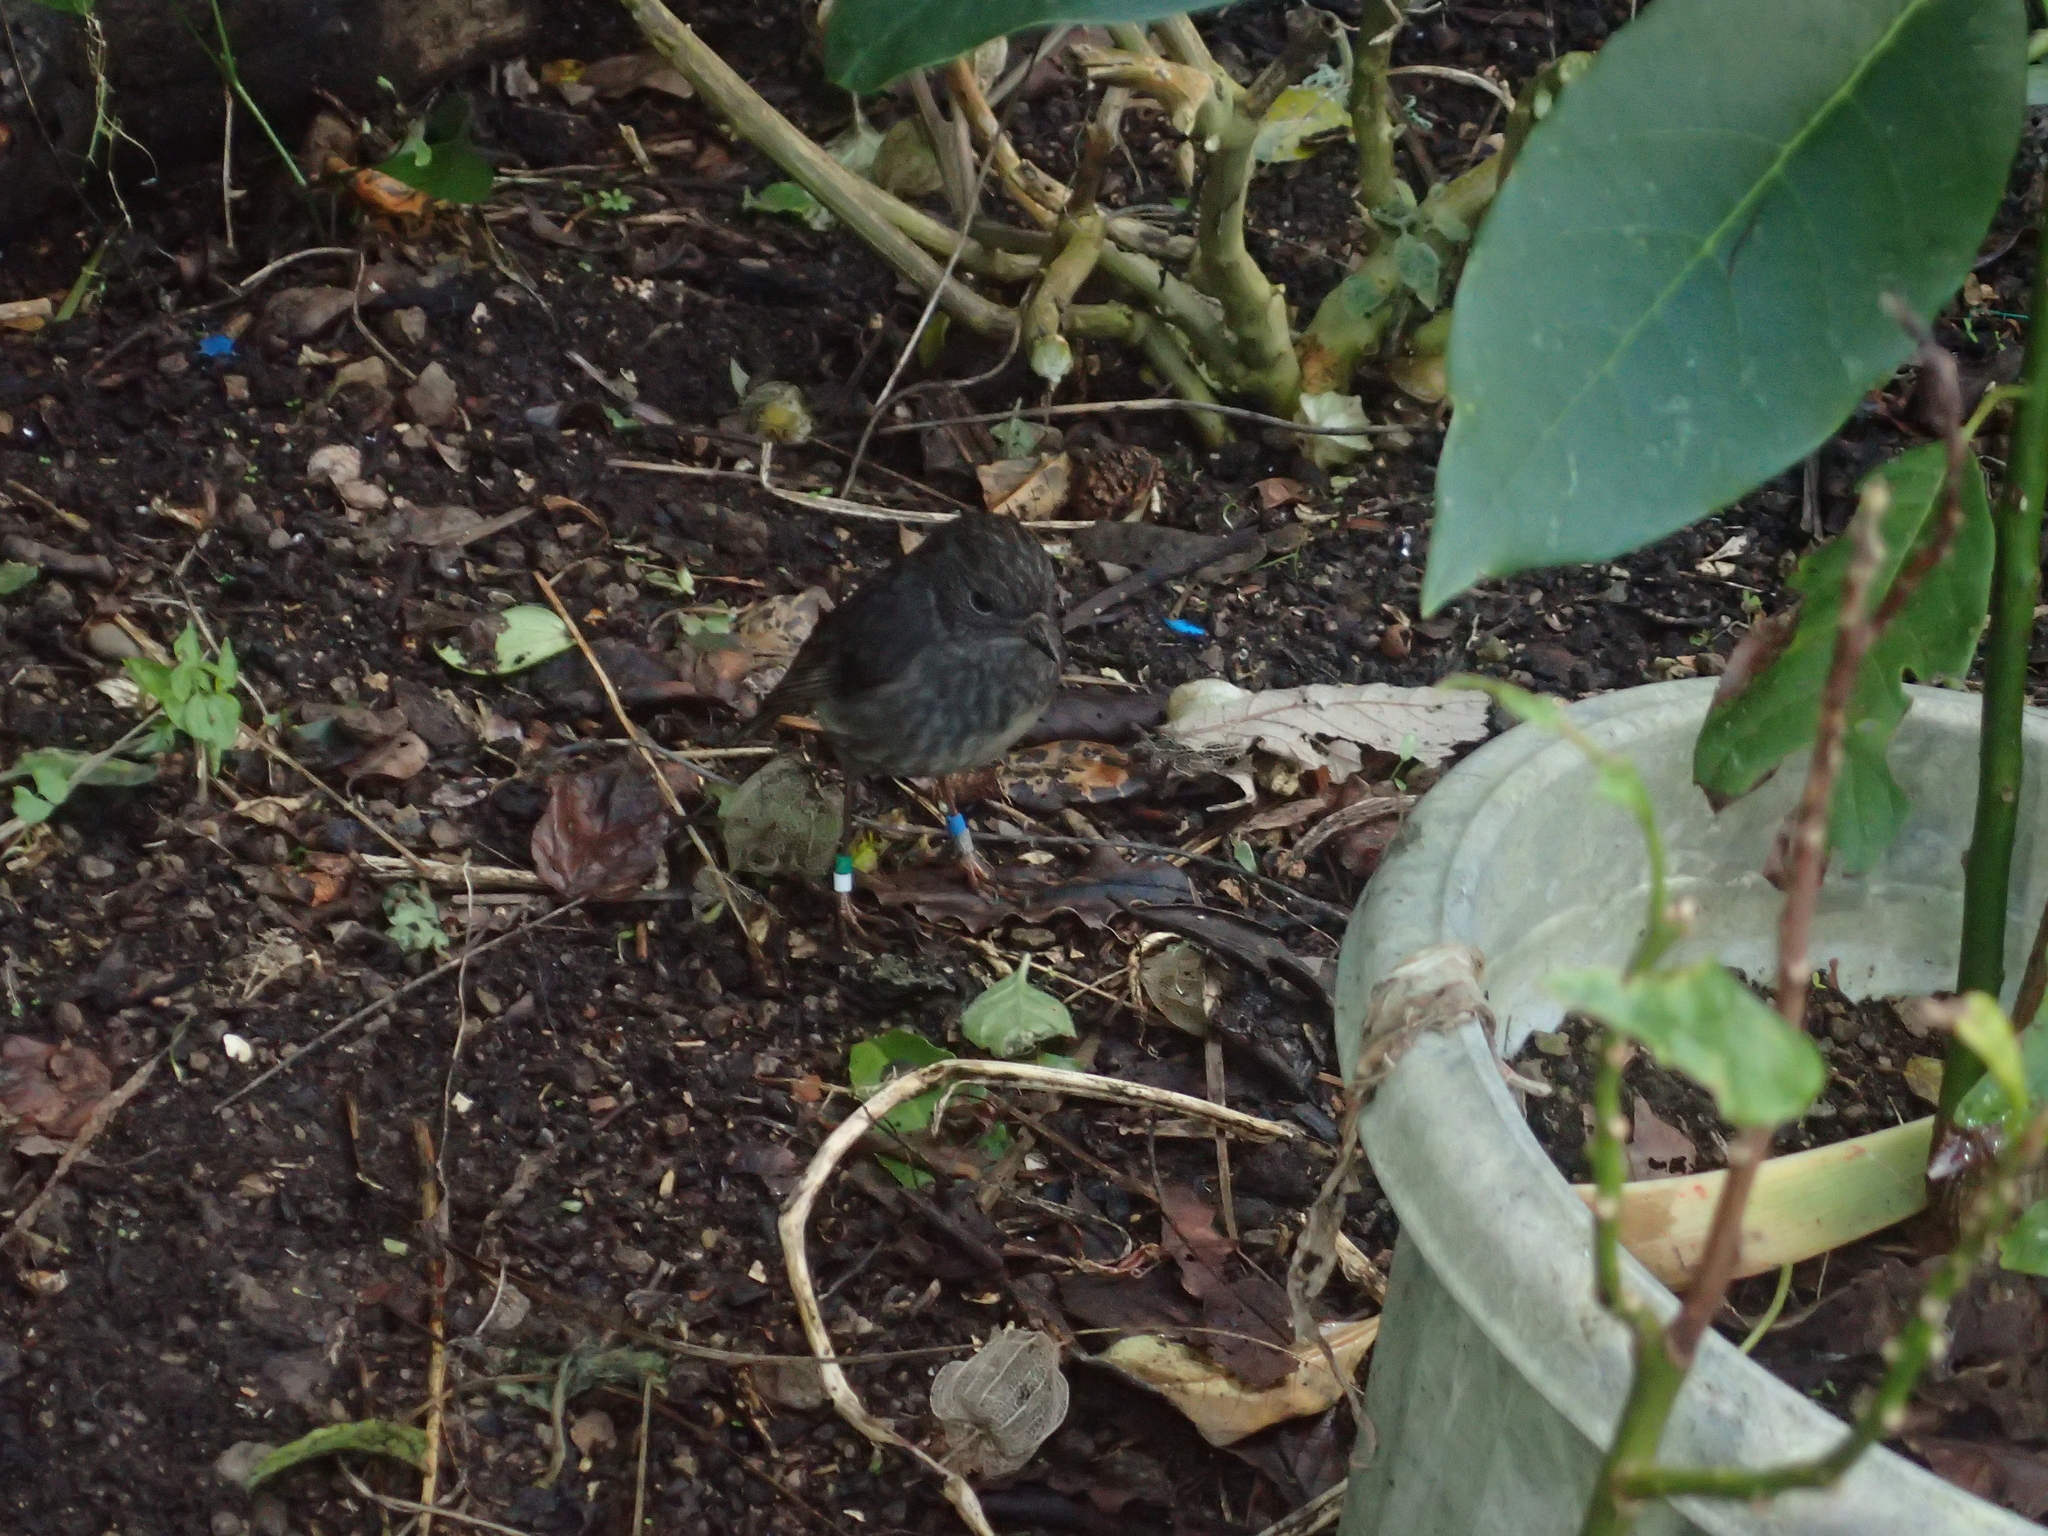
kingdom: Animalia
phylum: Chordata
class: Aves
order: Passeriformes
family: Petroicidae
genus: Petroica
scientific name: Petroica australis
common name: New zealand robin
